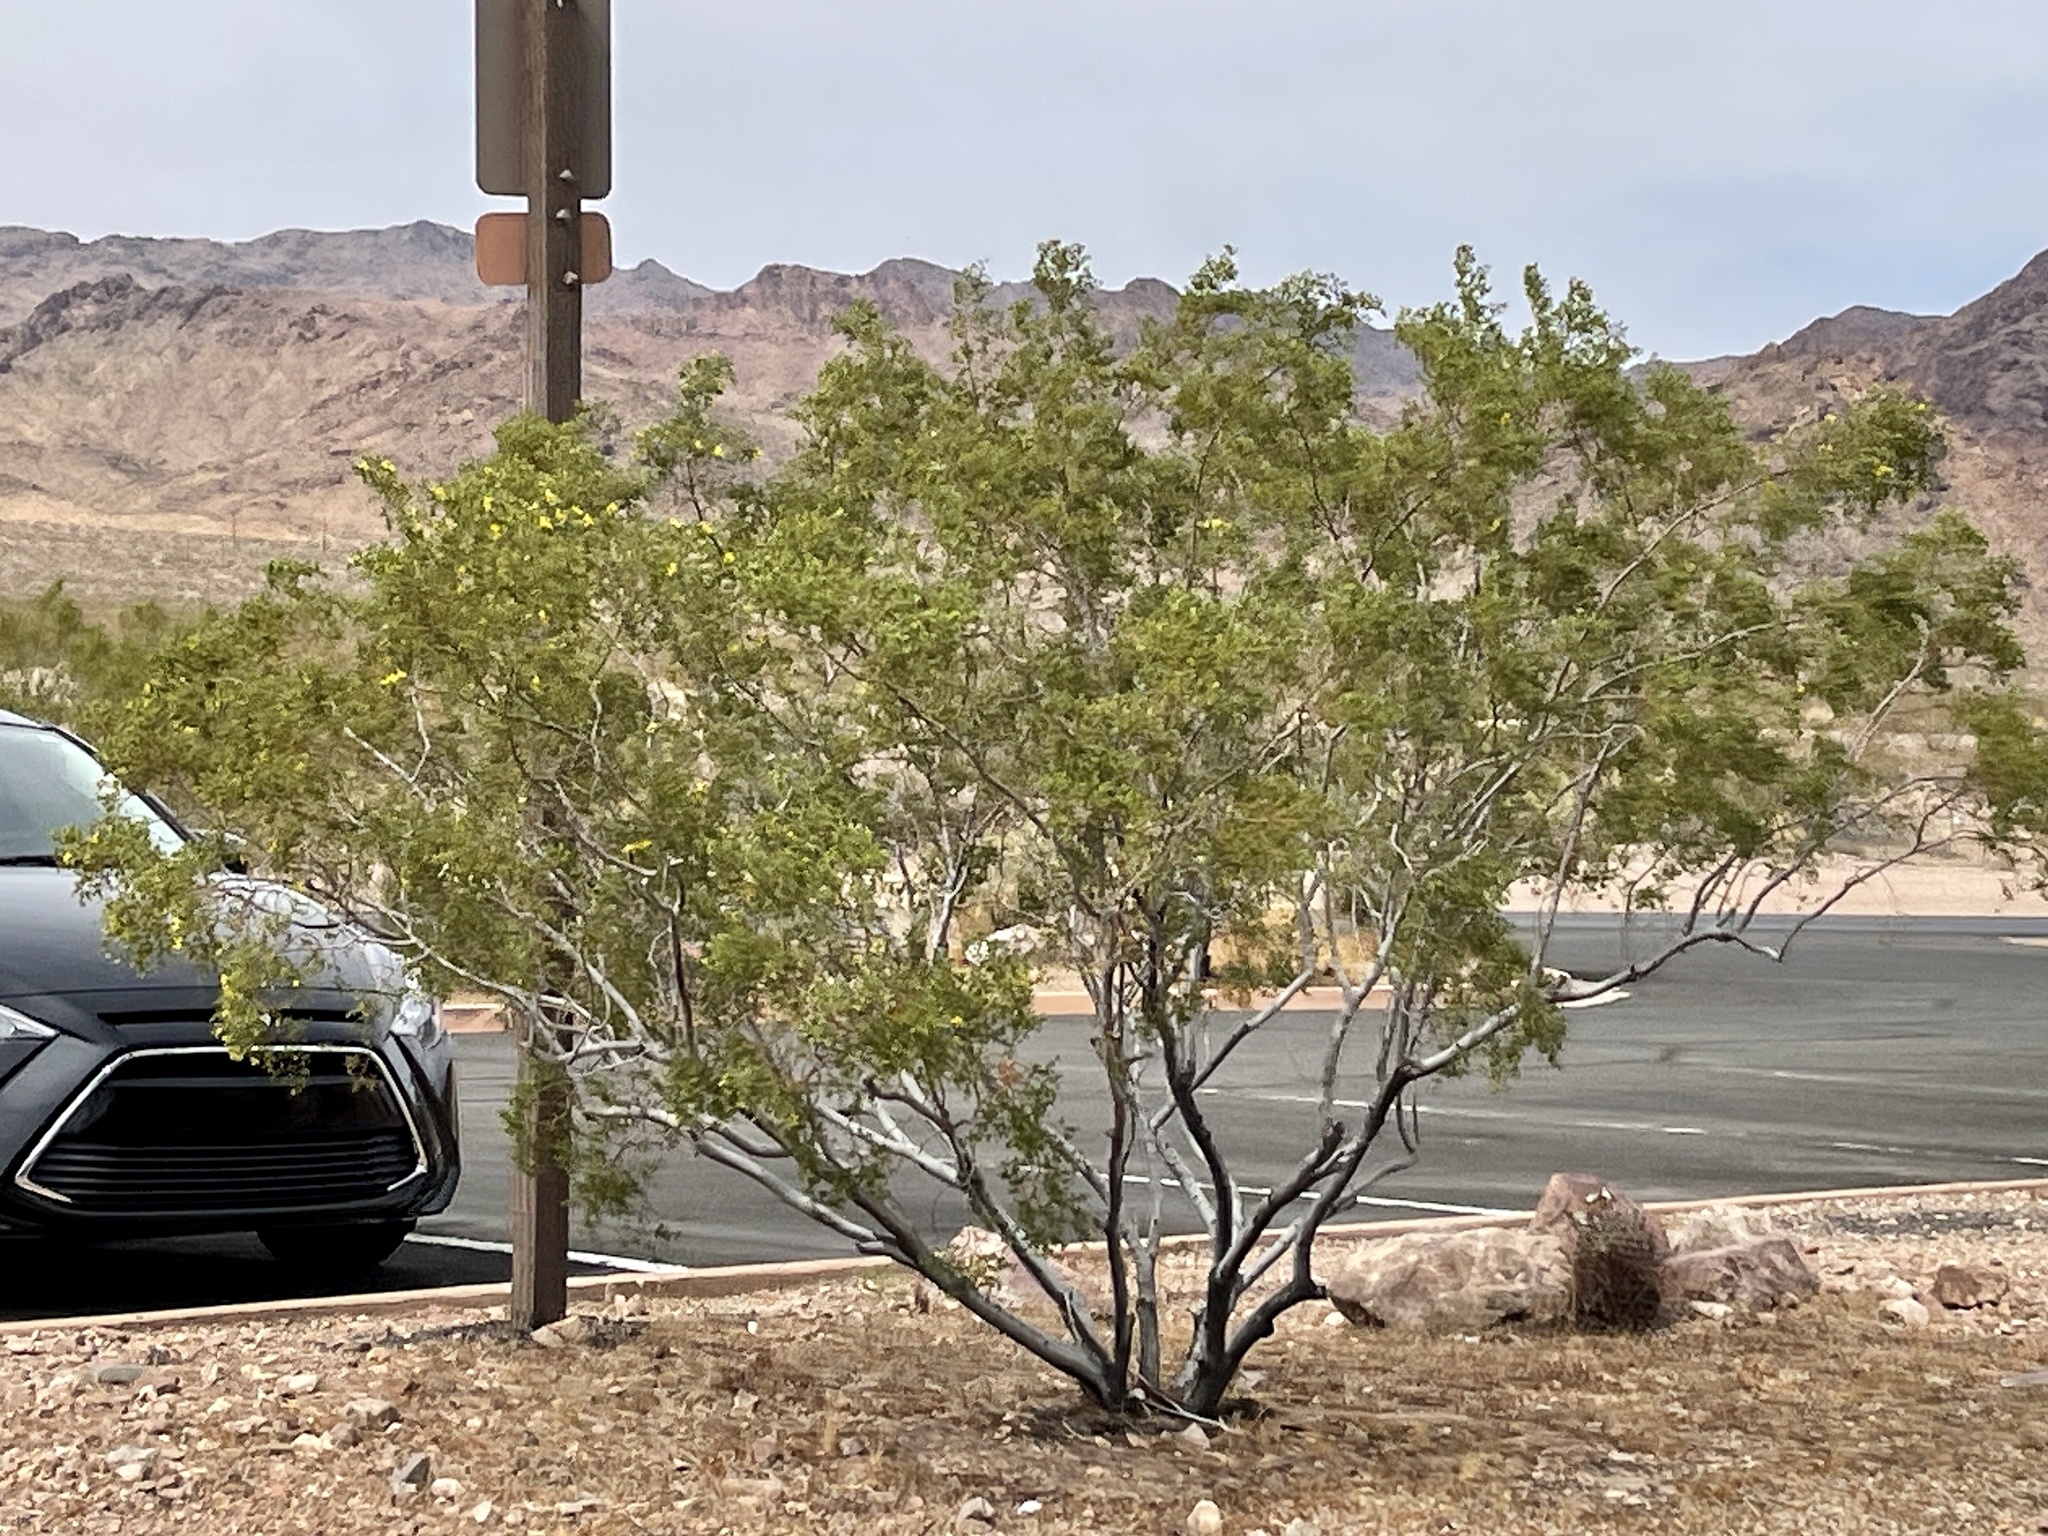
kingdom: Plantae
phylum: Tracheophyta
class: Magnoliopsida
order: Zygophyllales
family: Zygophyllaceae
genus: Larrea
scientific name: Larrea tridentata
